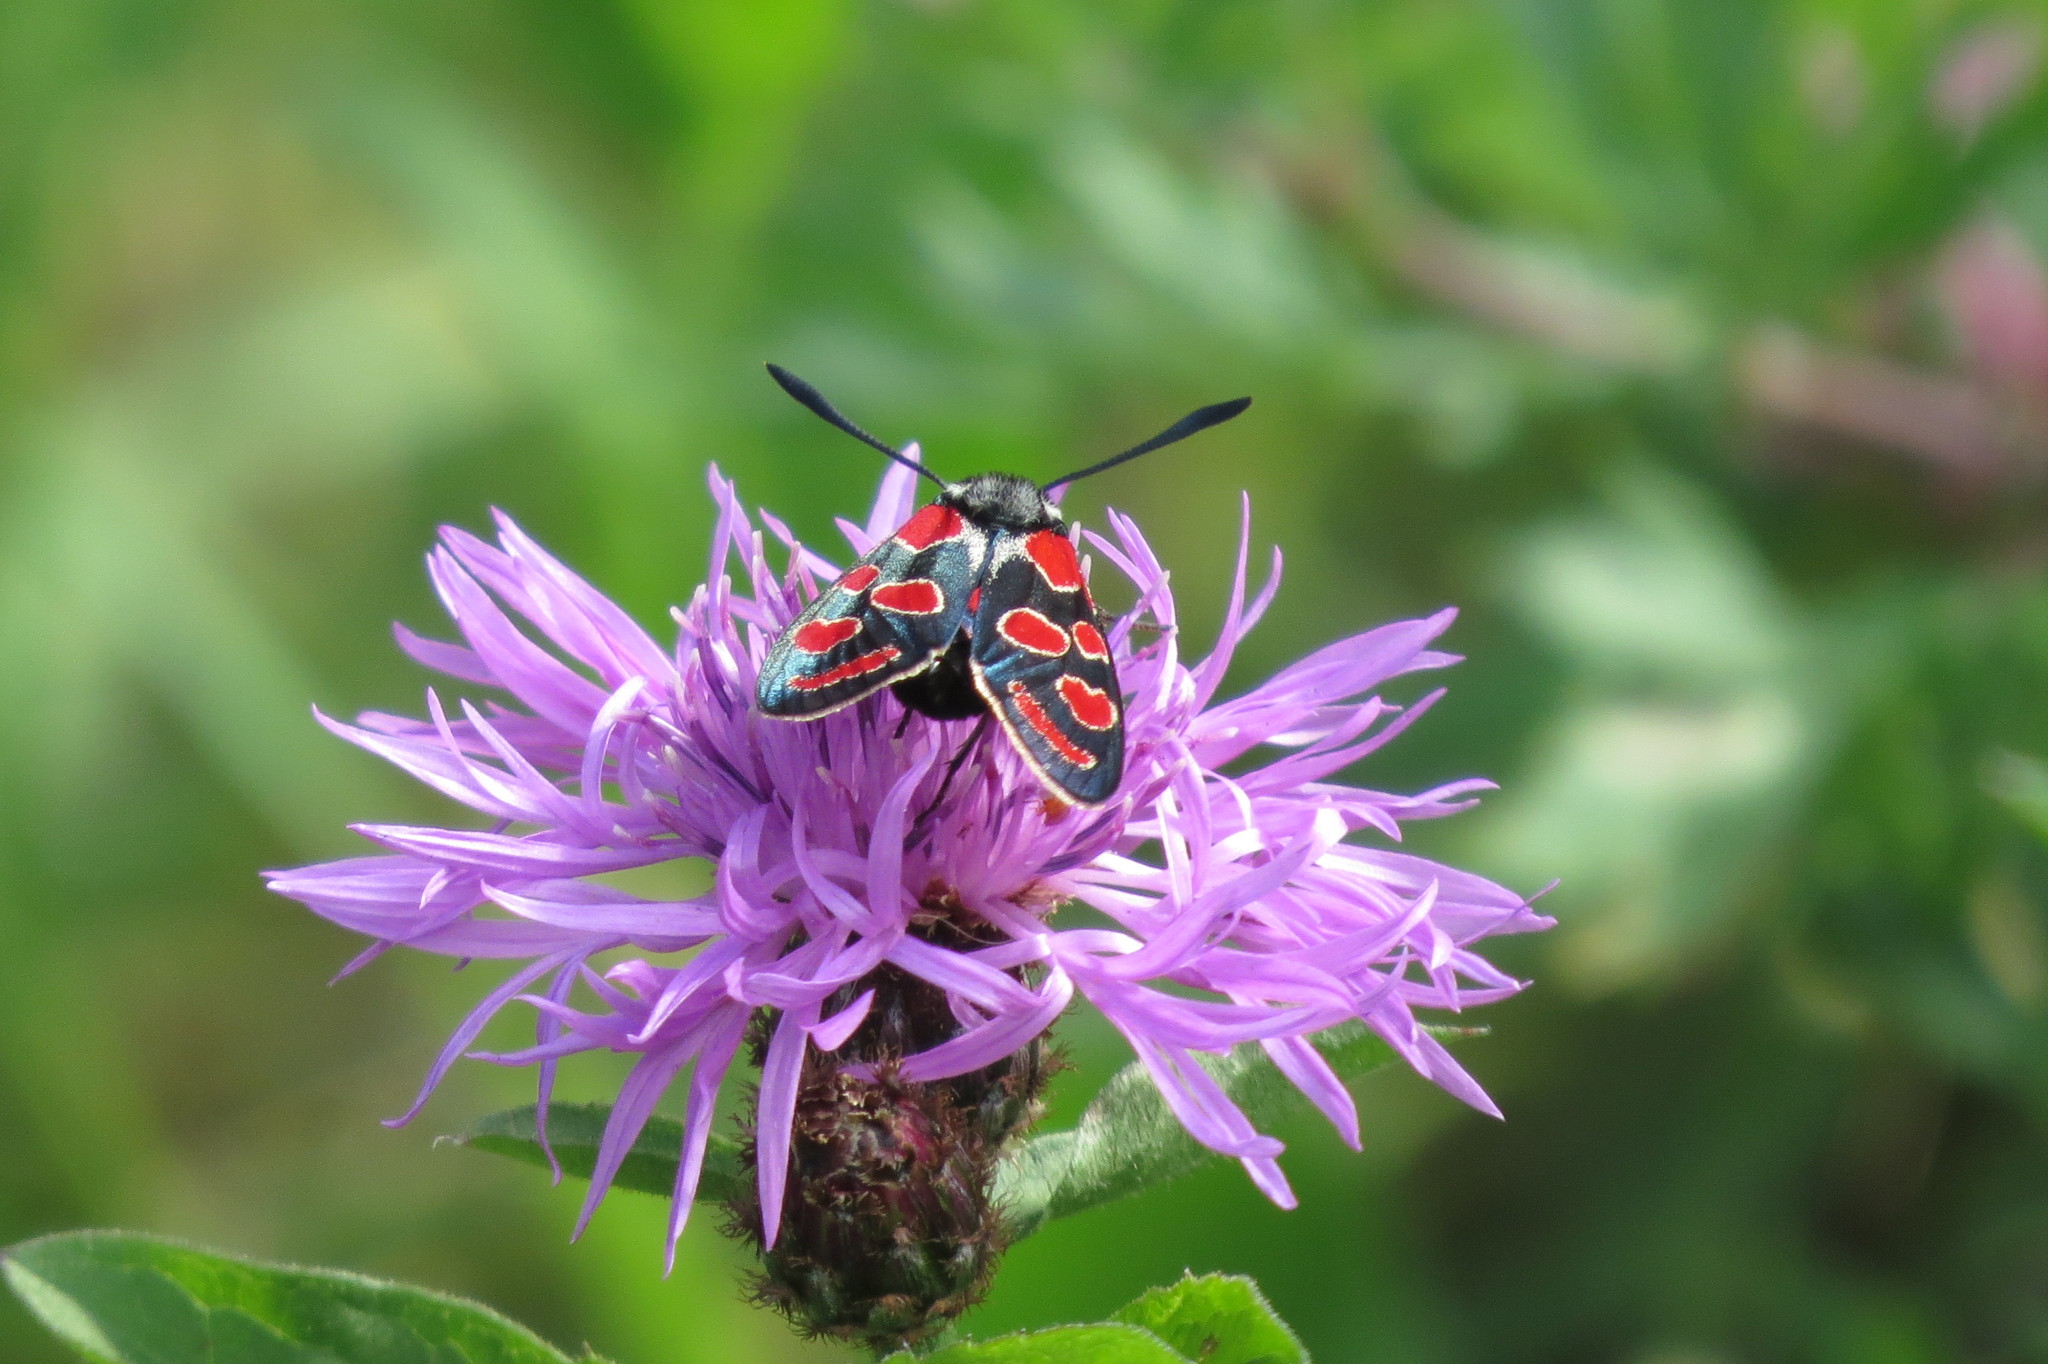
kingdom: Animalia
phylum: Arthropoda
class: Insecta
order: Lepidoptera
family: Zygaenidae
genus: Zygaena
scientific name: Zygaena carniolica
